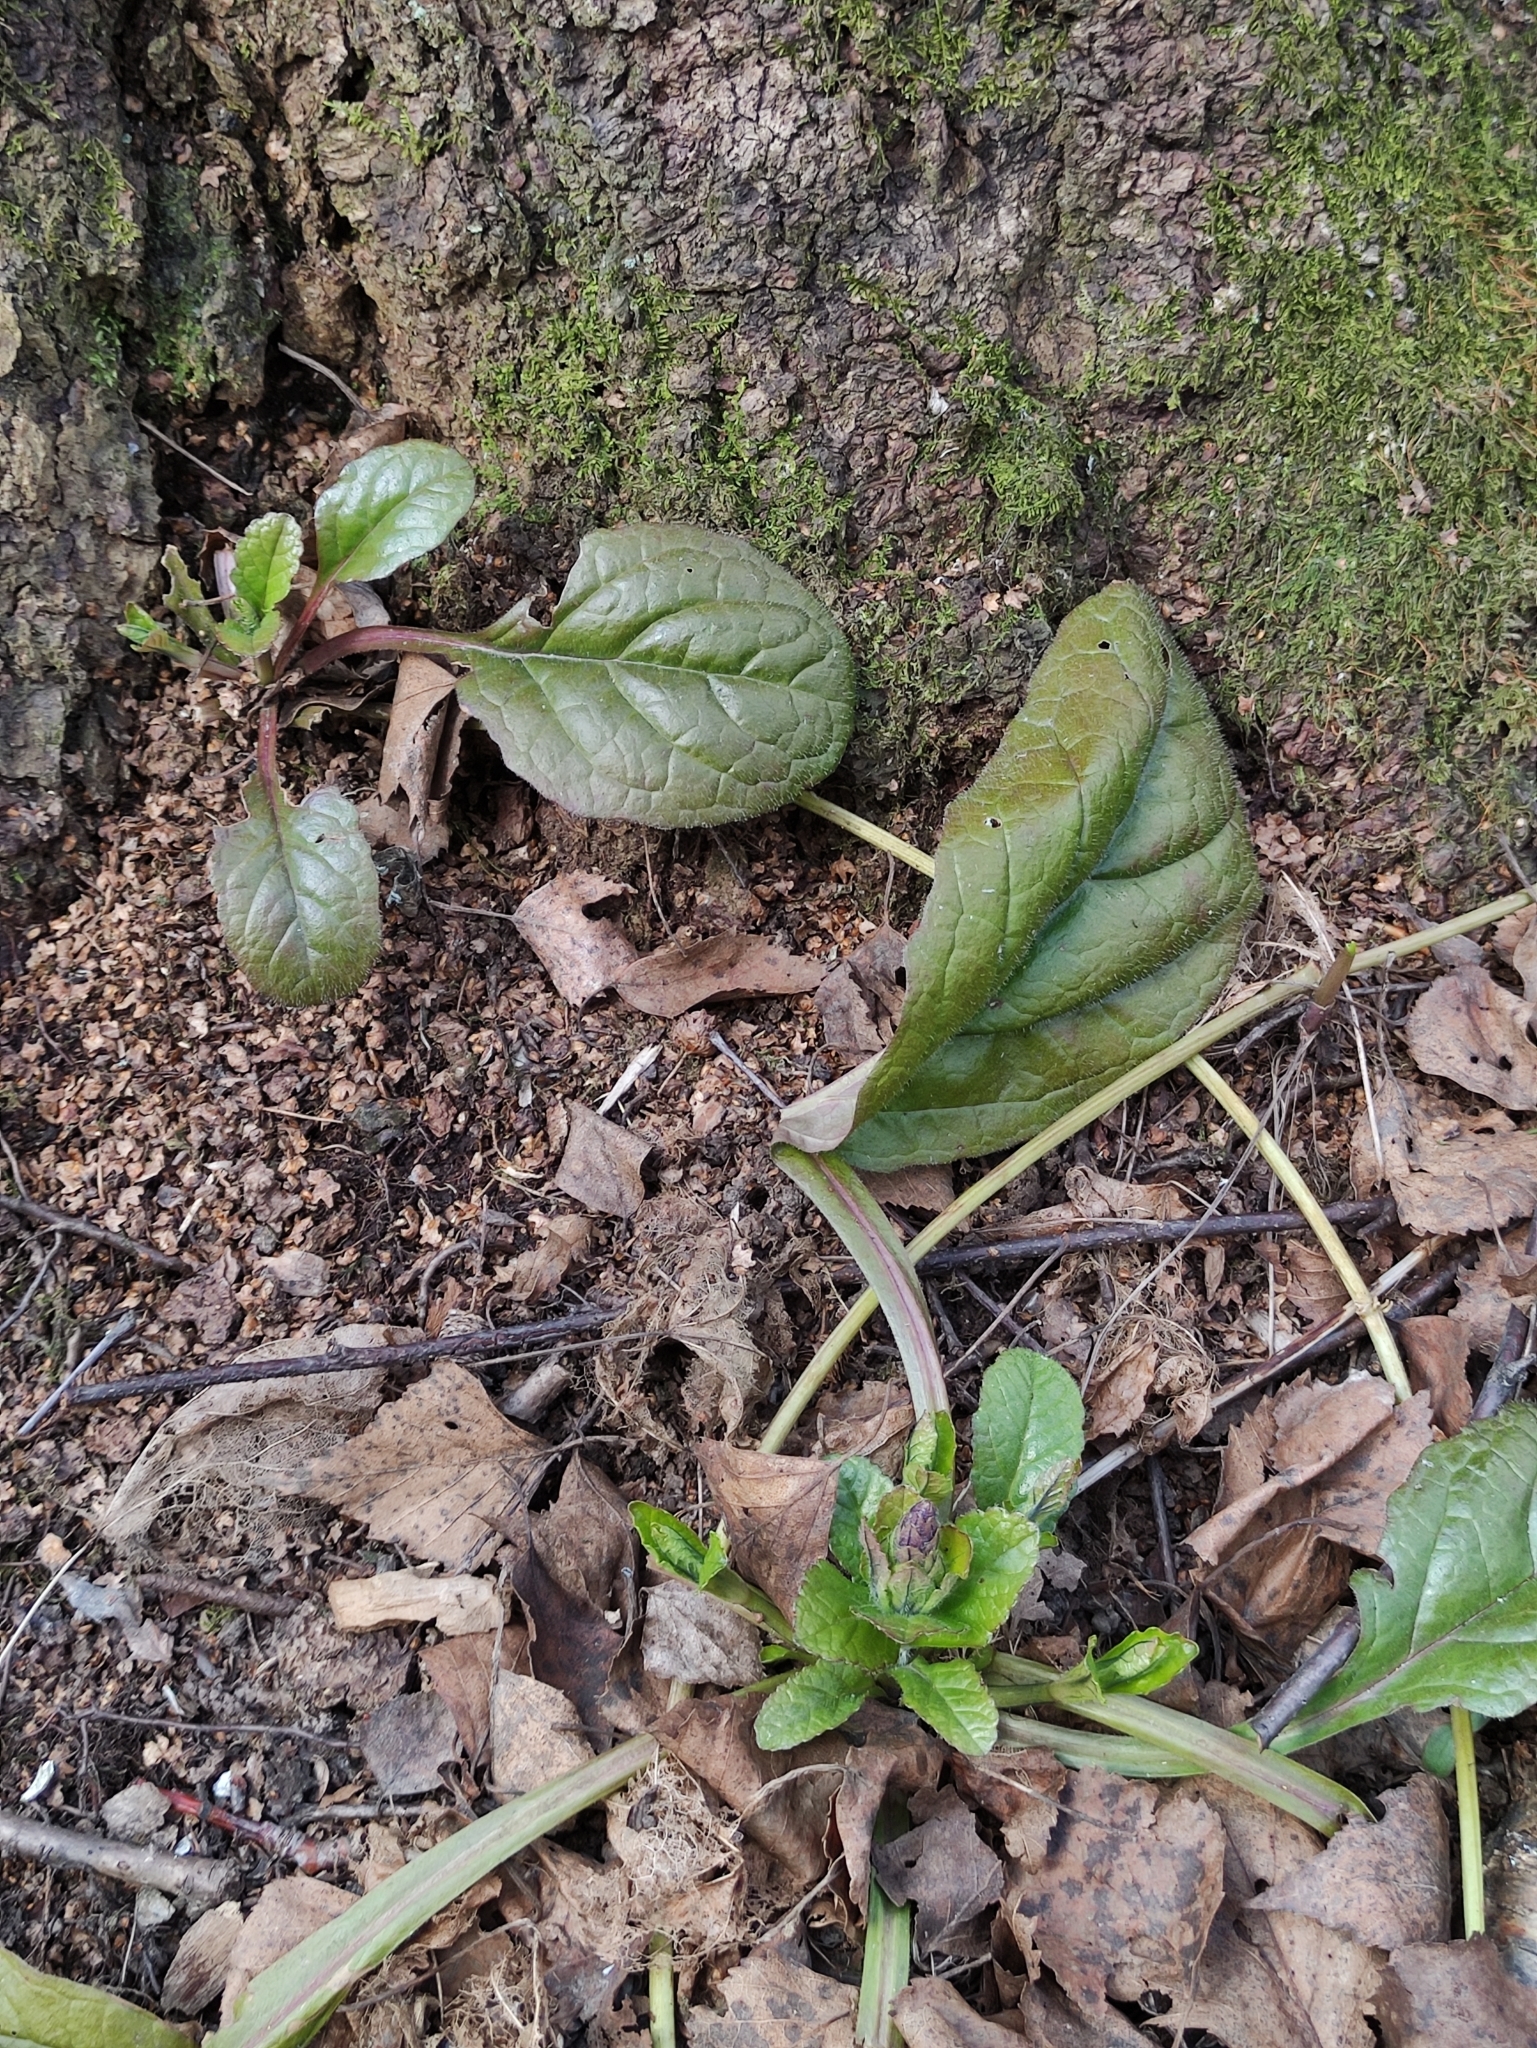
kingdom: Plantae
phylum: Tracheophyta
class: Magnoliopsida
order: Lamiales
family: Lamiaceae
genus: Ajuga
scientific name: Ajuga reptans
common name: Bugle
